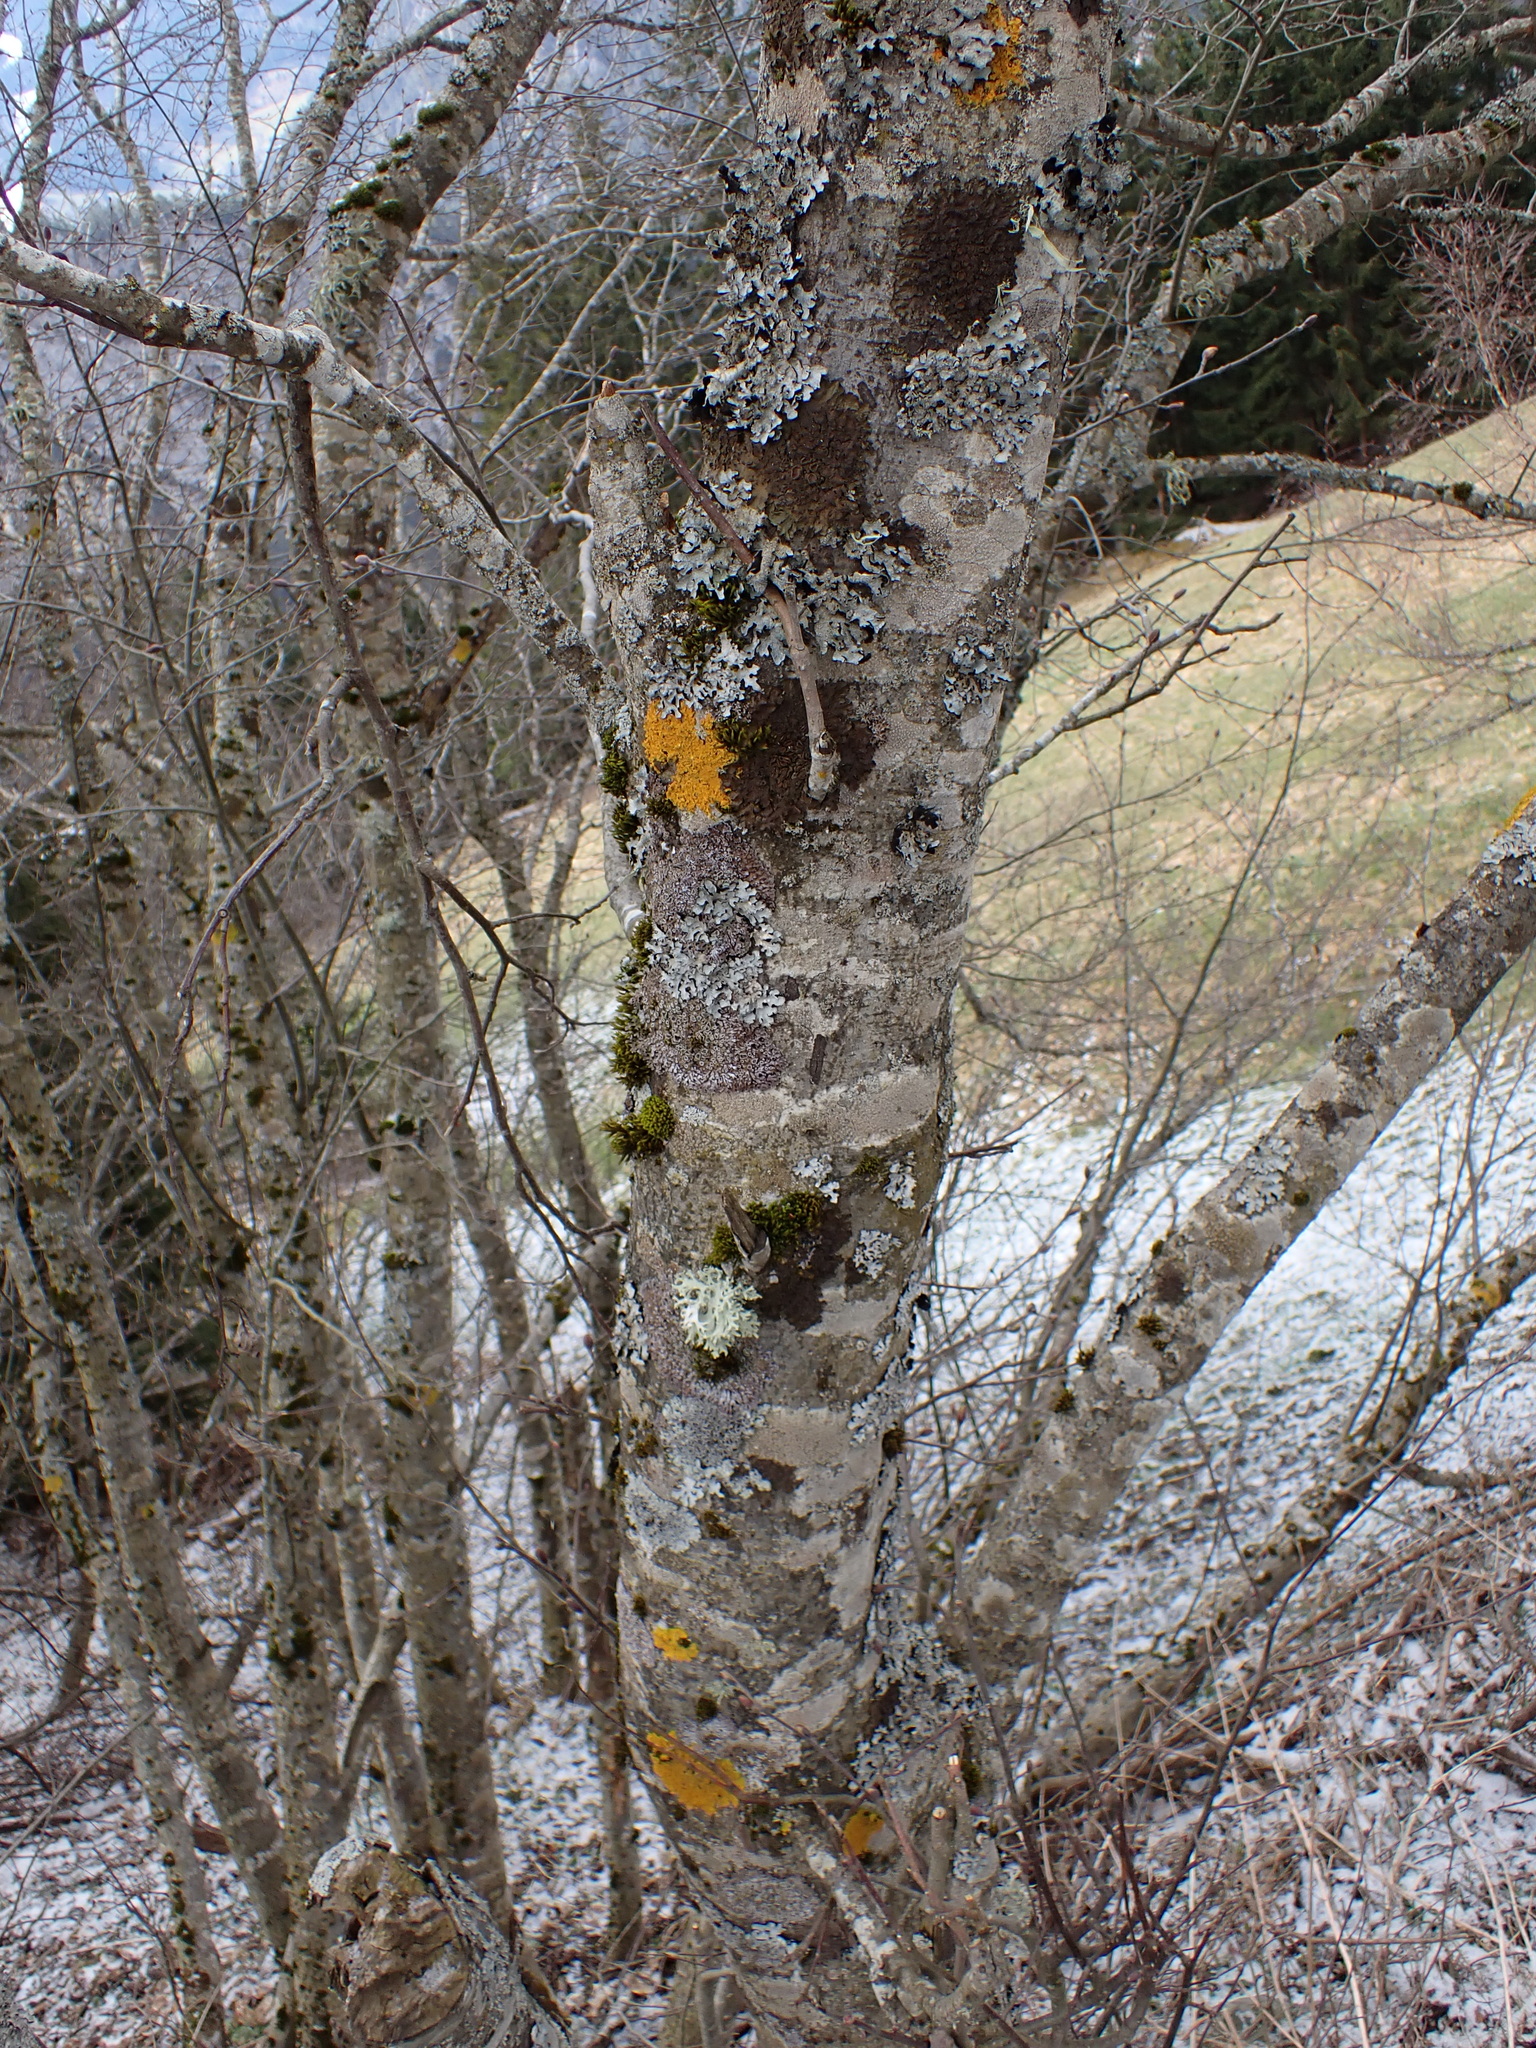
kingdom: Fungi
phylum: Ascomycota
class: Lecanoromycetes
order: Lecanorales
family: Parmeliaceae
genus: Parmelia
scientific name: Parmelia sulcata
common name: Netted shield lichen
